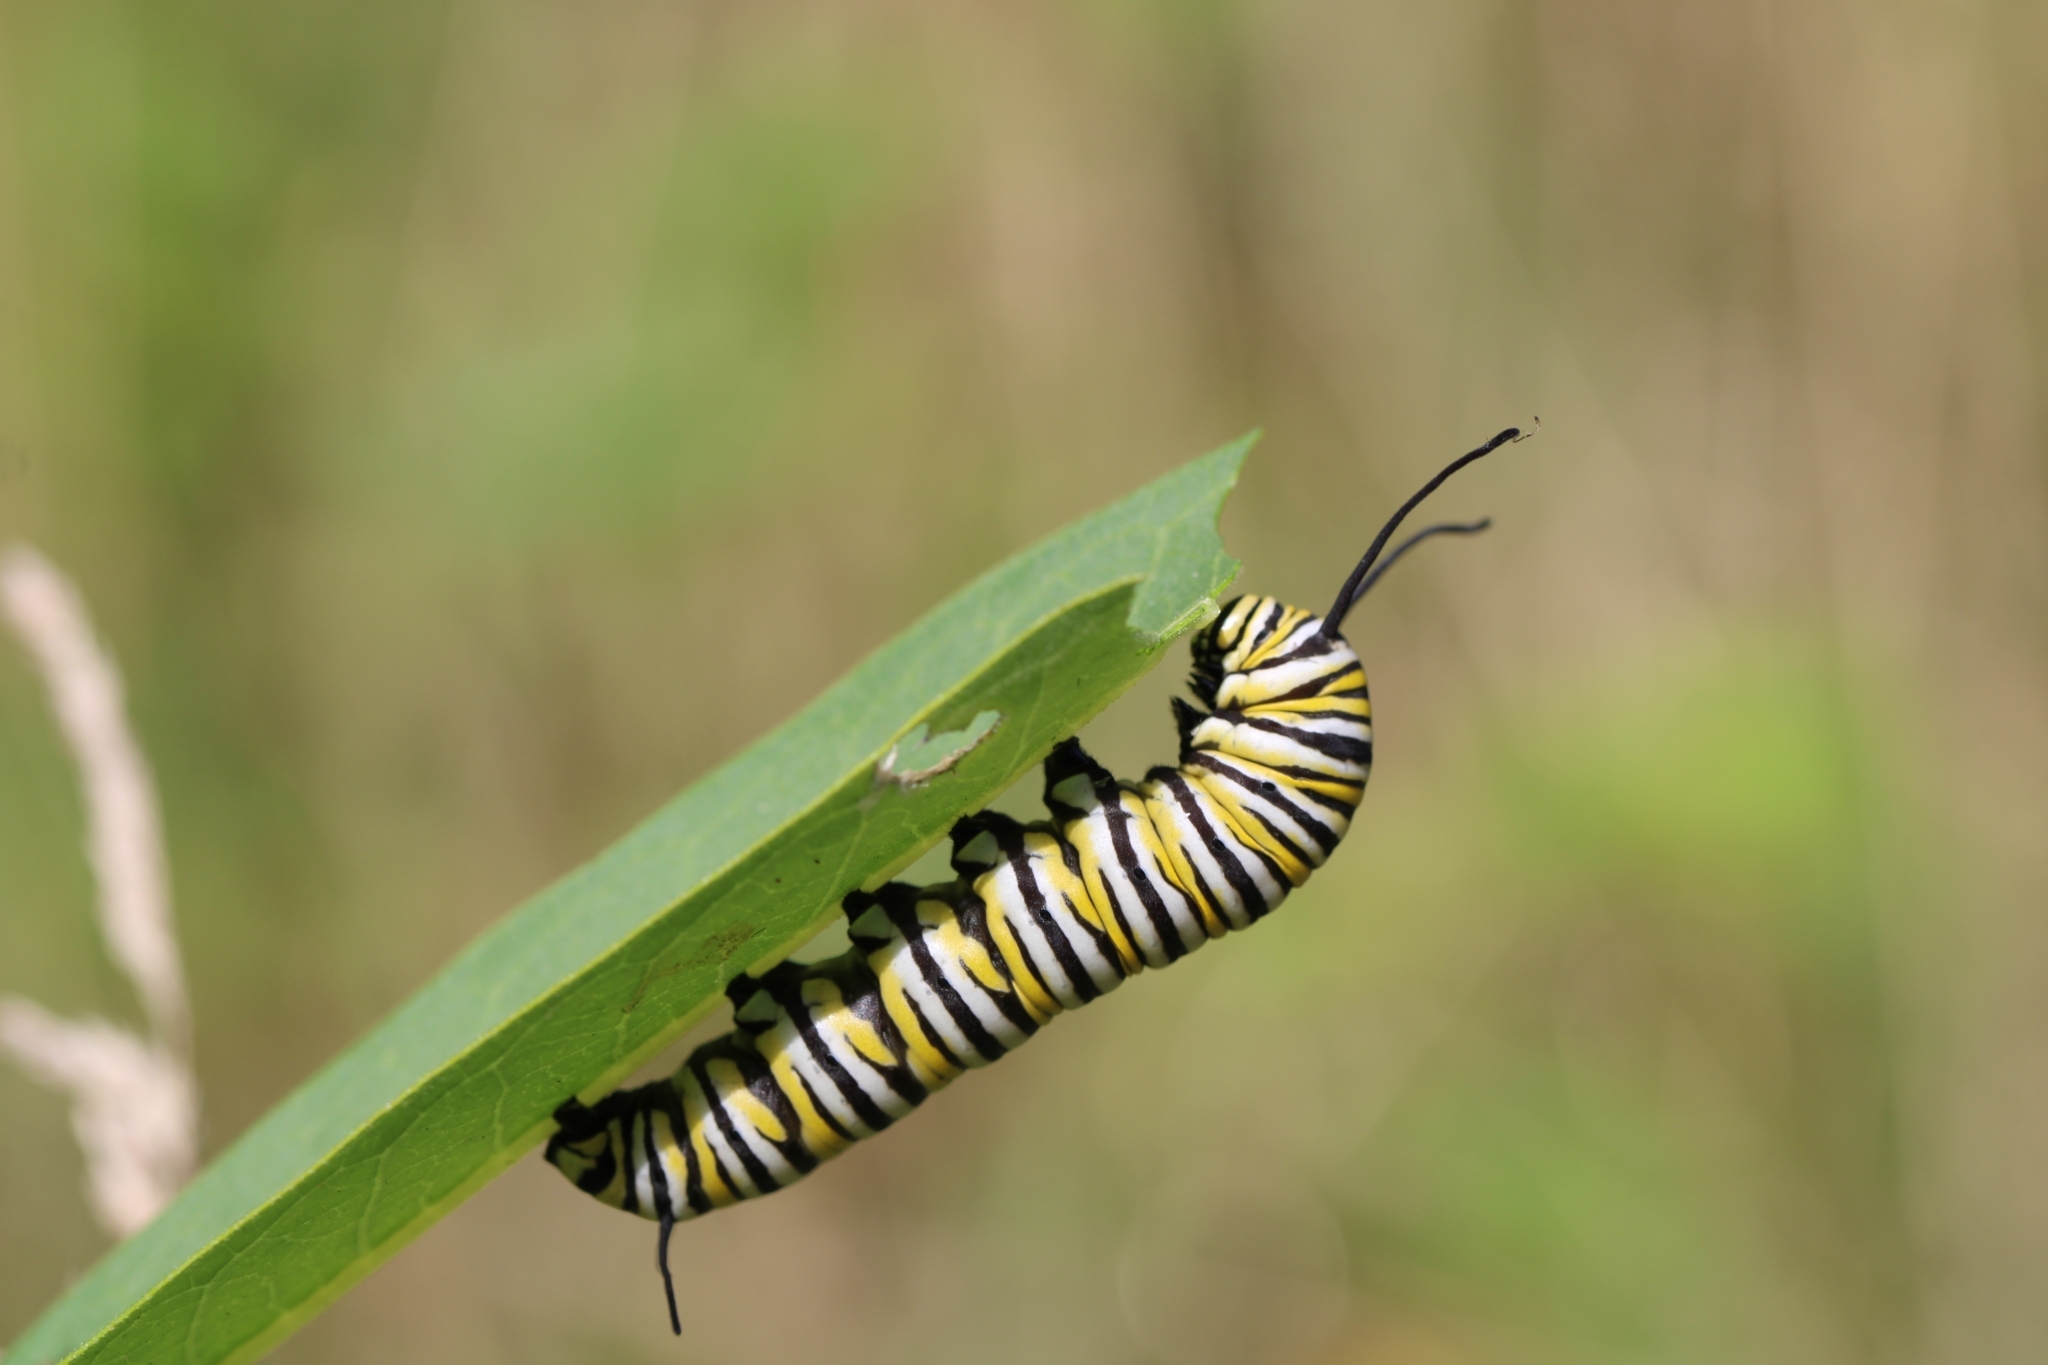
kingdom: Animalia
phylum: Arthropoda
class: Insecta
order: Lepidoptera
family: Nymphalidae
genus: Danaus
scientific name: Danaus plexippus
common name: Monarch
